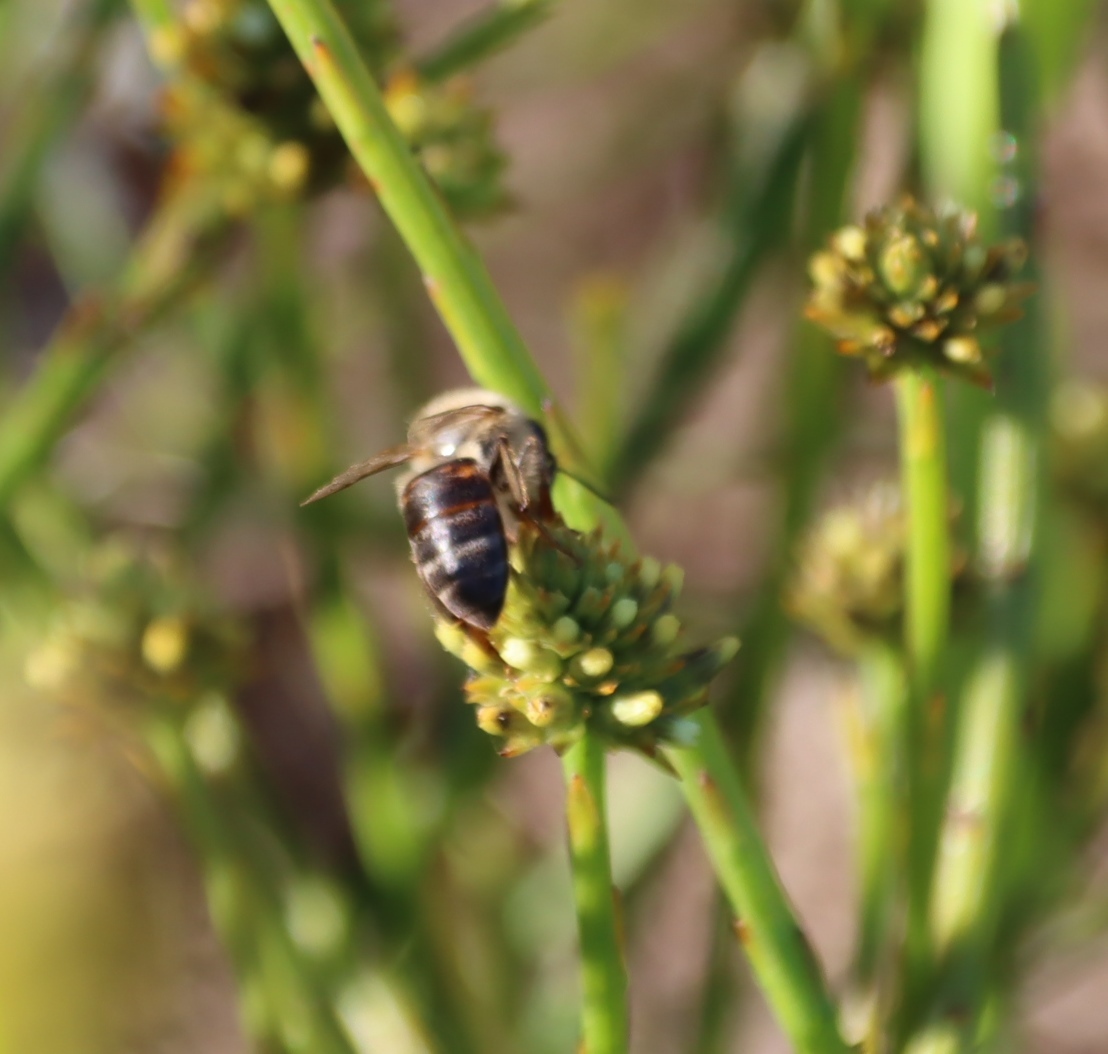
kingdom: Animalia
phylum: Arthropoda
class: Insecta
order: Hymenoptera
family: Apidae
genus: Apis
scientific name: Apis mellifera
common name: Honey bee
